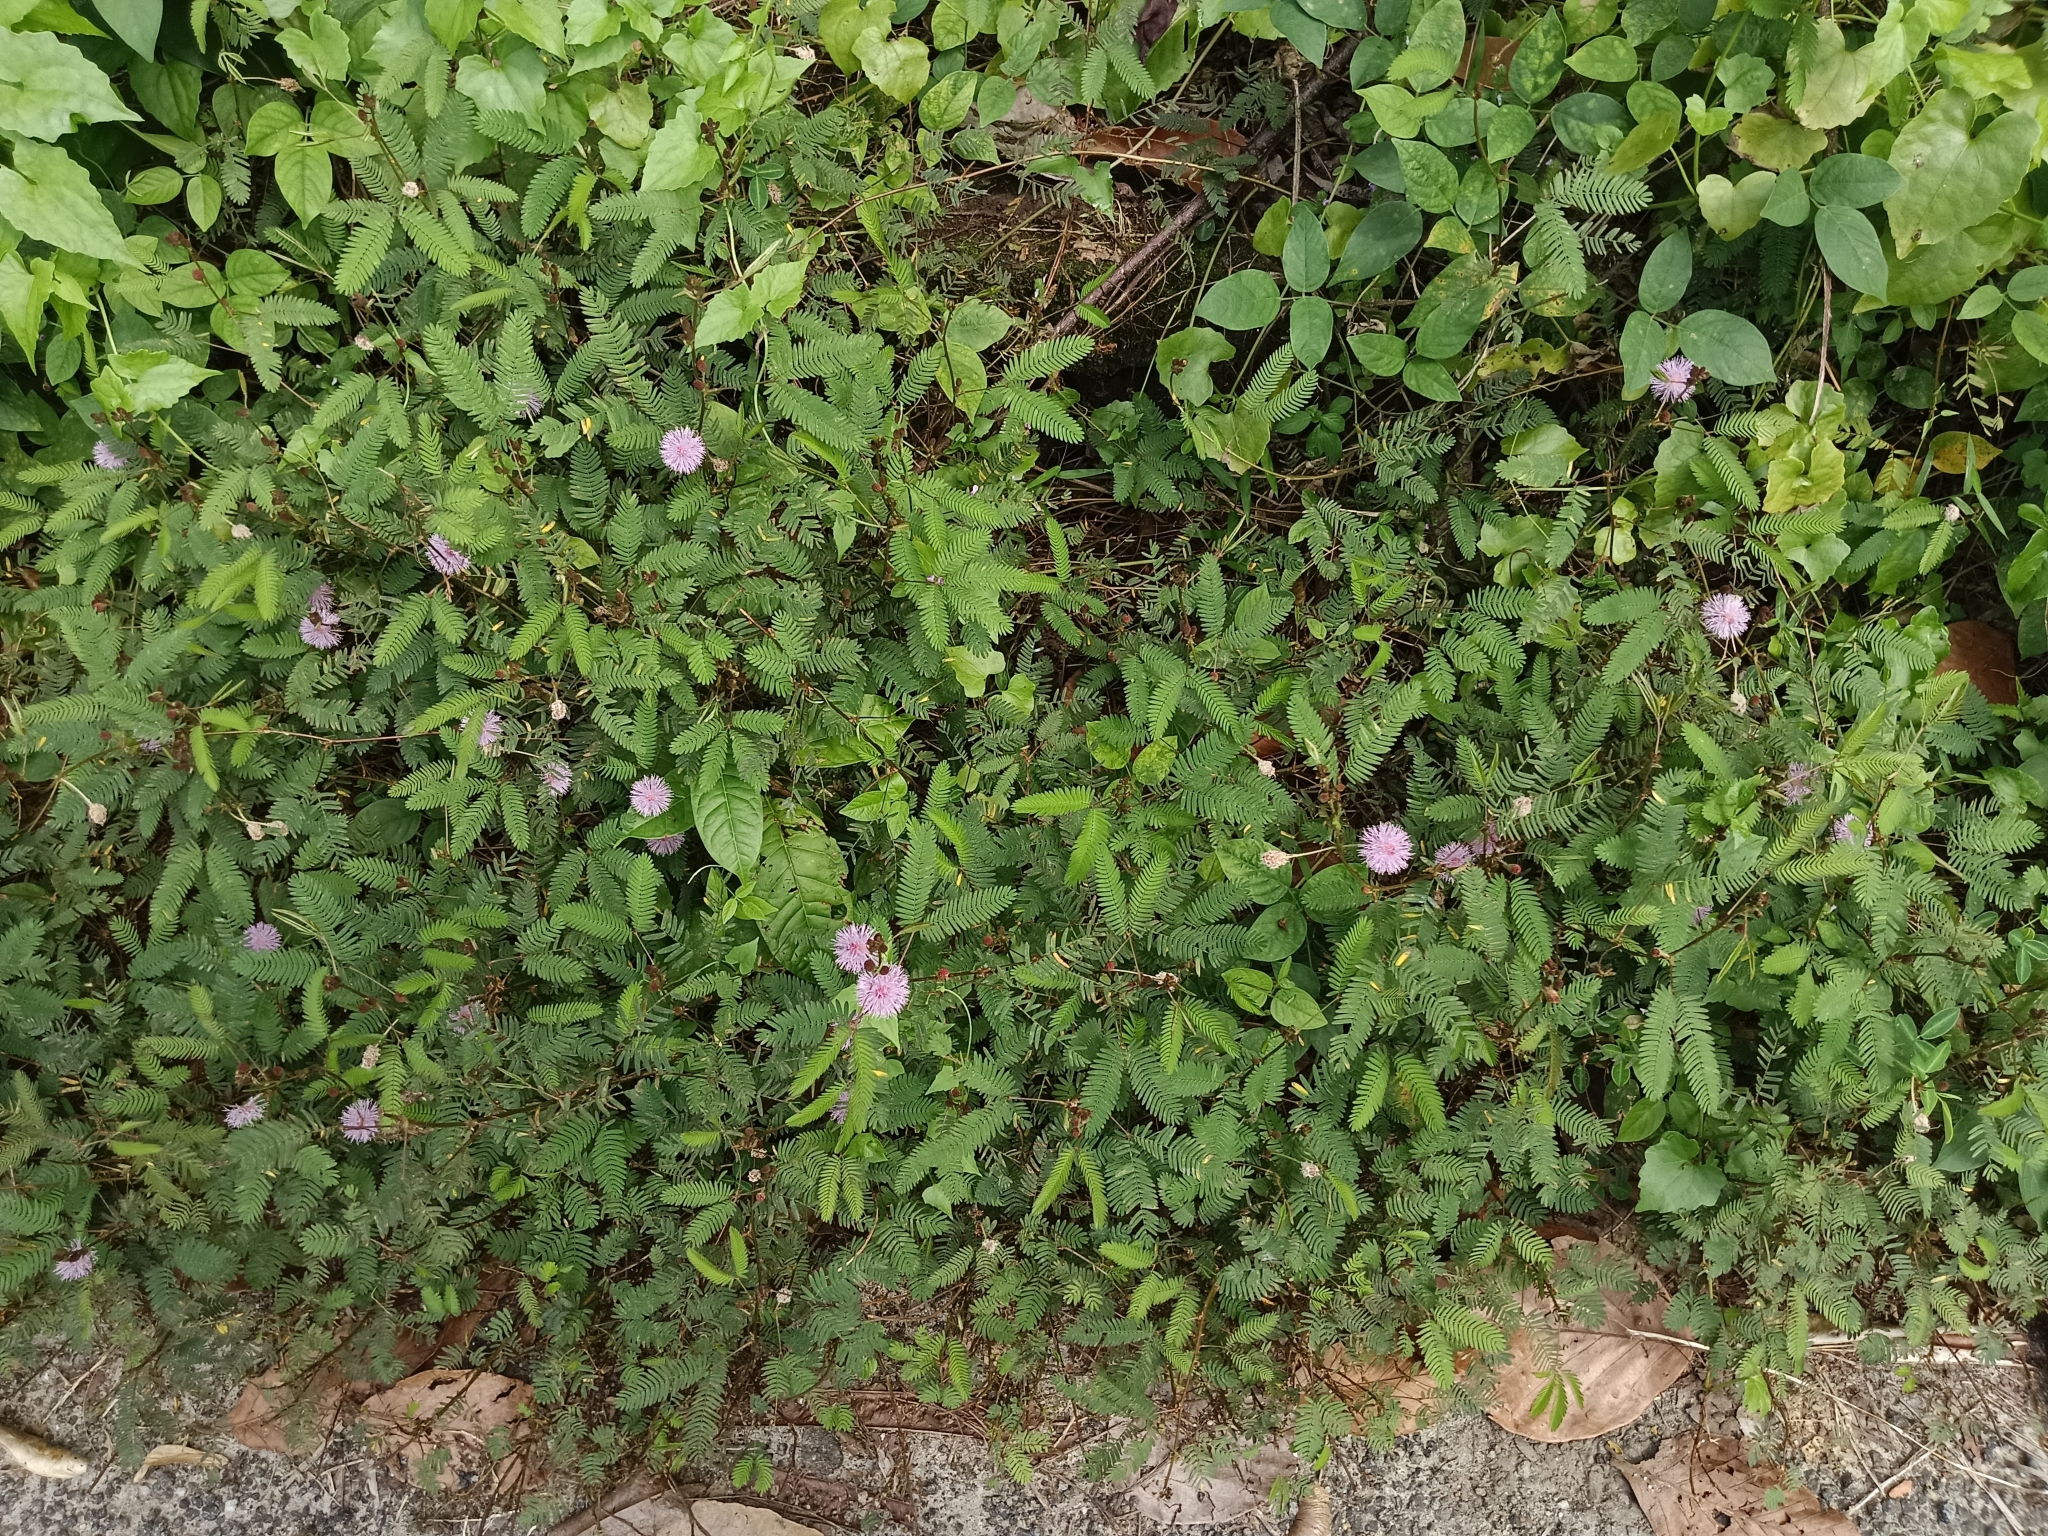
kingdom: Plantae
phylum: Tracheophyta
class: Magnoliopsida
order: Fabales
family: Fabaceae
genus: Mimosa
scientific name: Mimosa pudica
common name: Sensitive plant
